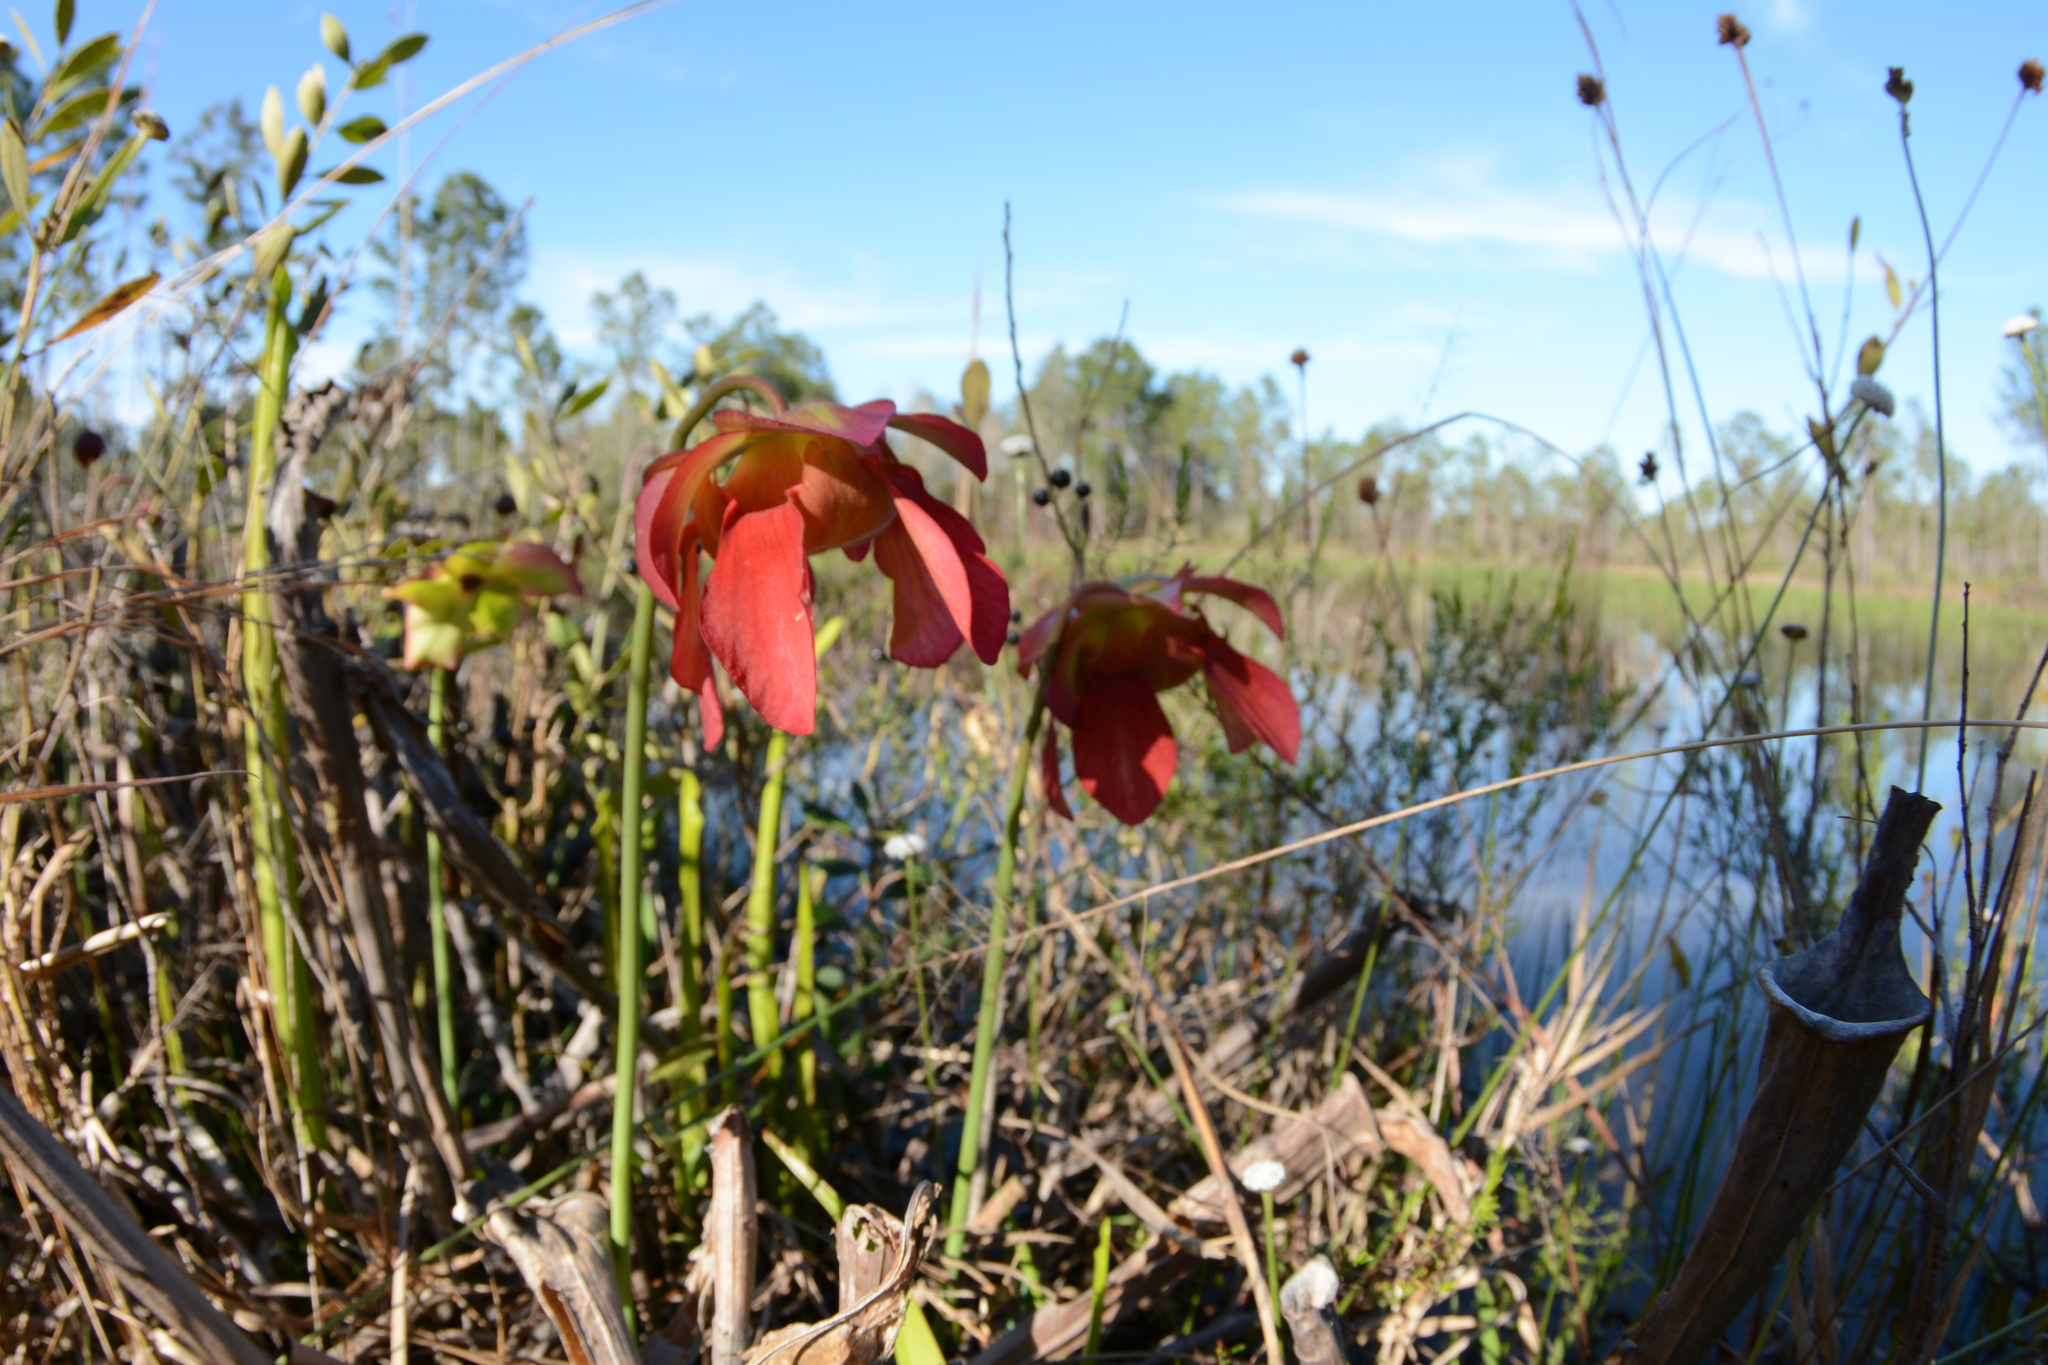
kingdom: Plantae
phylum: Tracheophyta
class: Magnoliopsida
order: Ericales
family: Sarraceniaceae
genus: Sarracenia
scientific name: Sarracenia leucophylla
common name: Purple trumpetleaf
